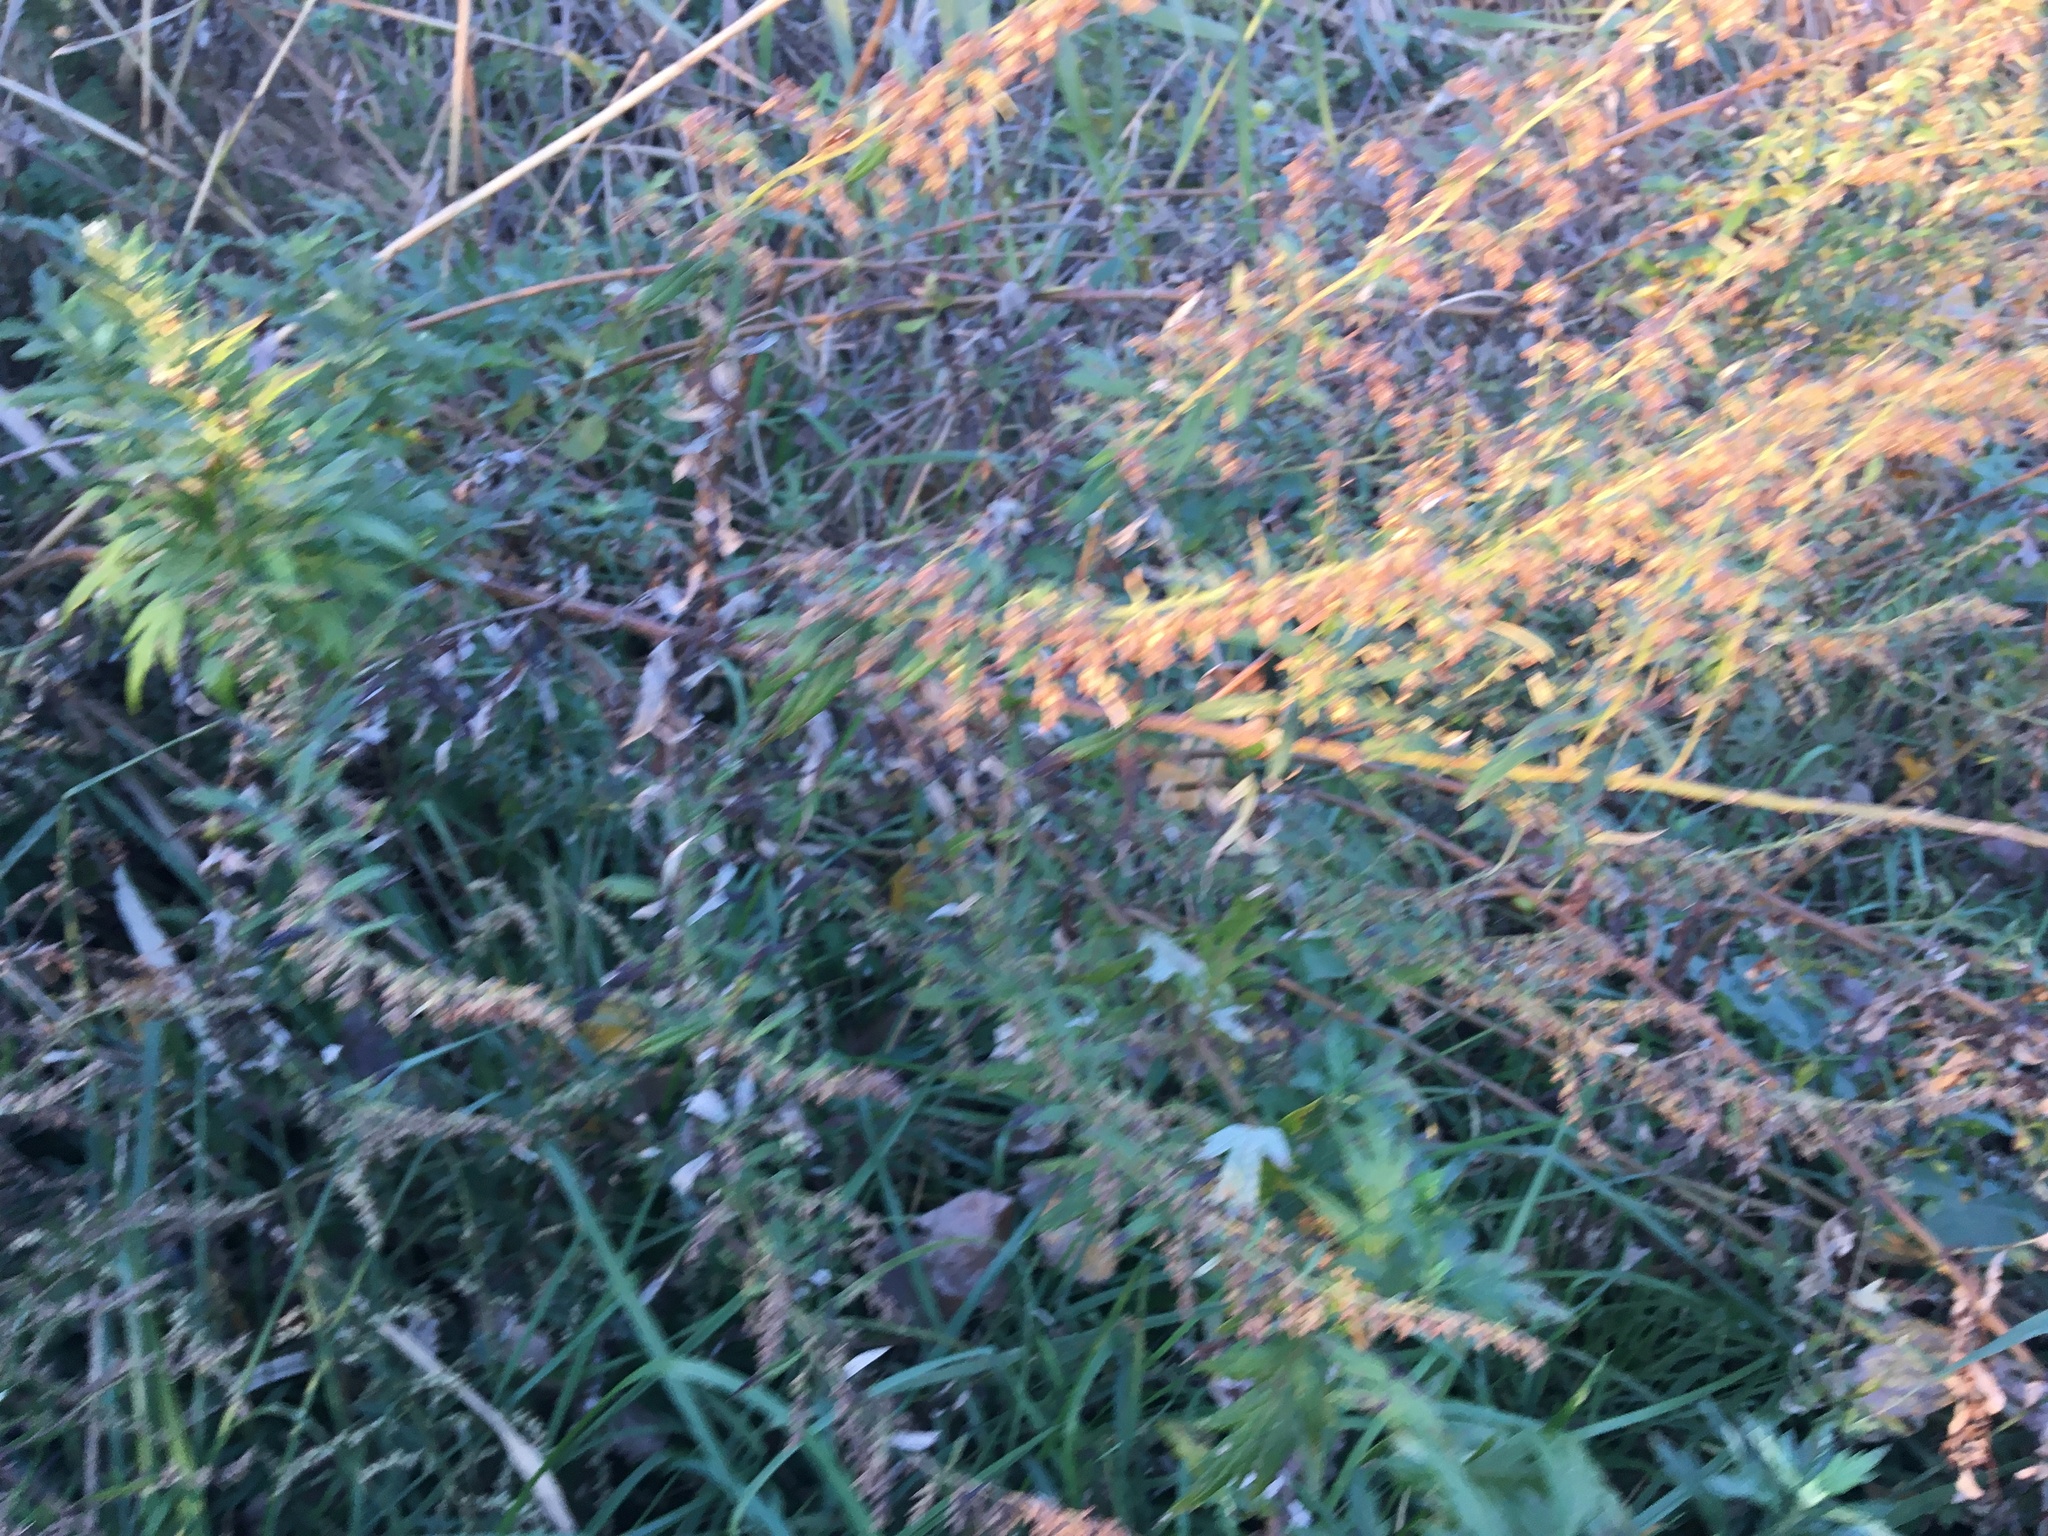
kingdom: Plantae
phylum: Tracheophyta
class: Magnoliopsida
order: Asterales
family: Asteraceae
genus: Artemisia
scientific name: Artemisia vulgaris
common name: Mugwort
